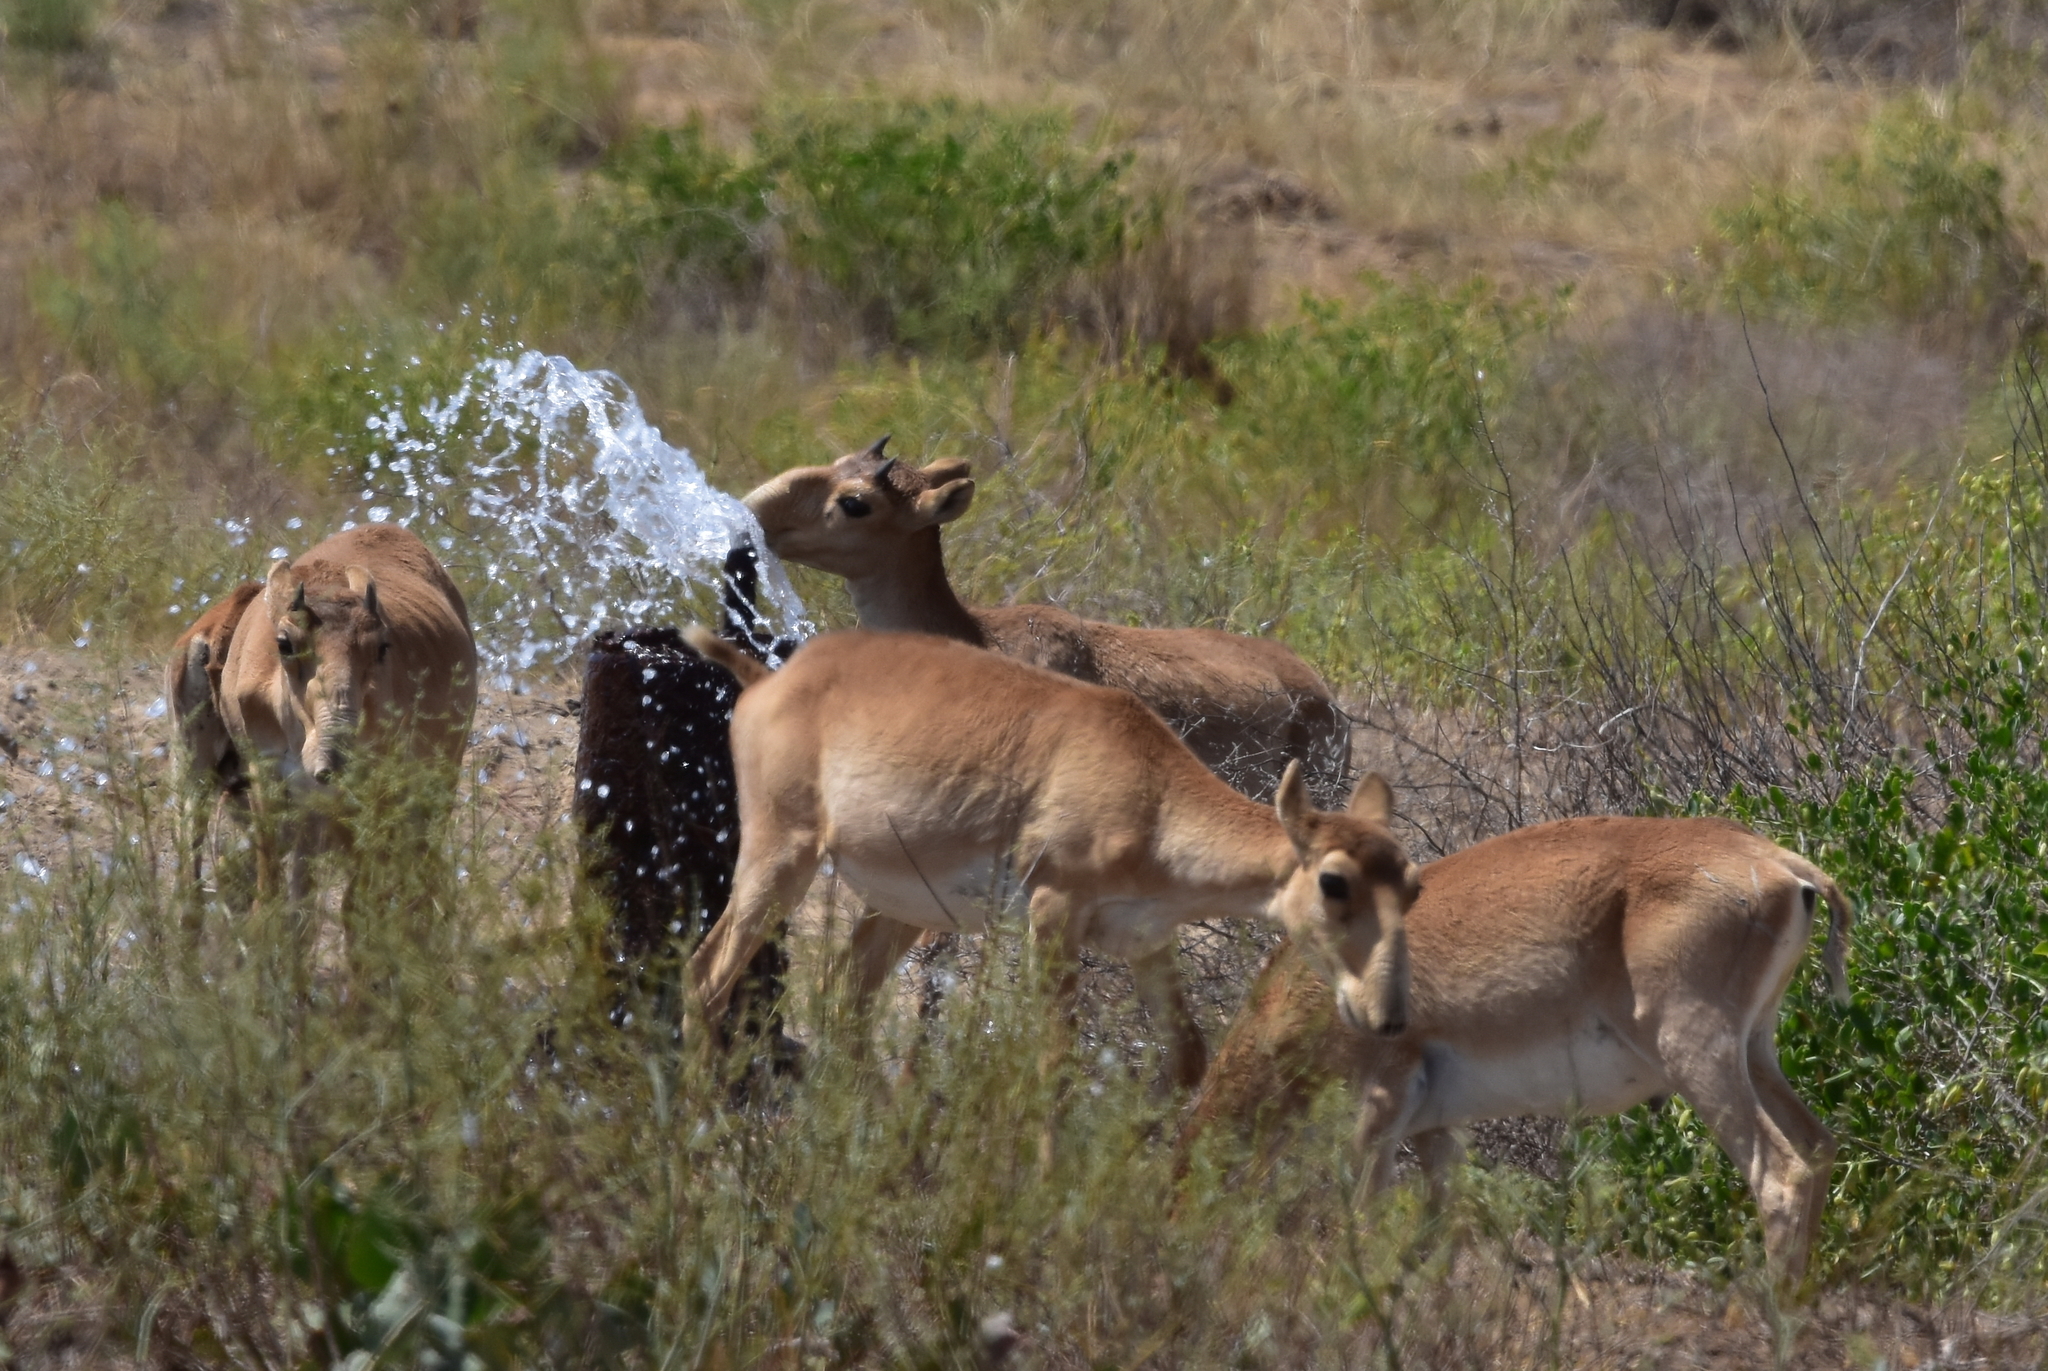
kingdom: Animalia
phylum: Chordata
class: Mammalia
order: Artiodactyla
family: Bovidae
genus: Saiga
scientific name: Saiga tatarica
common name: Saiga
